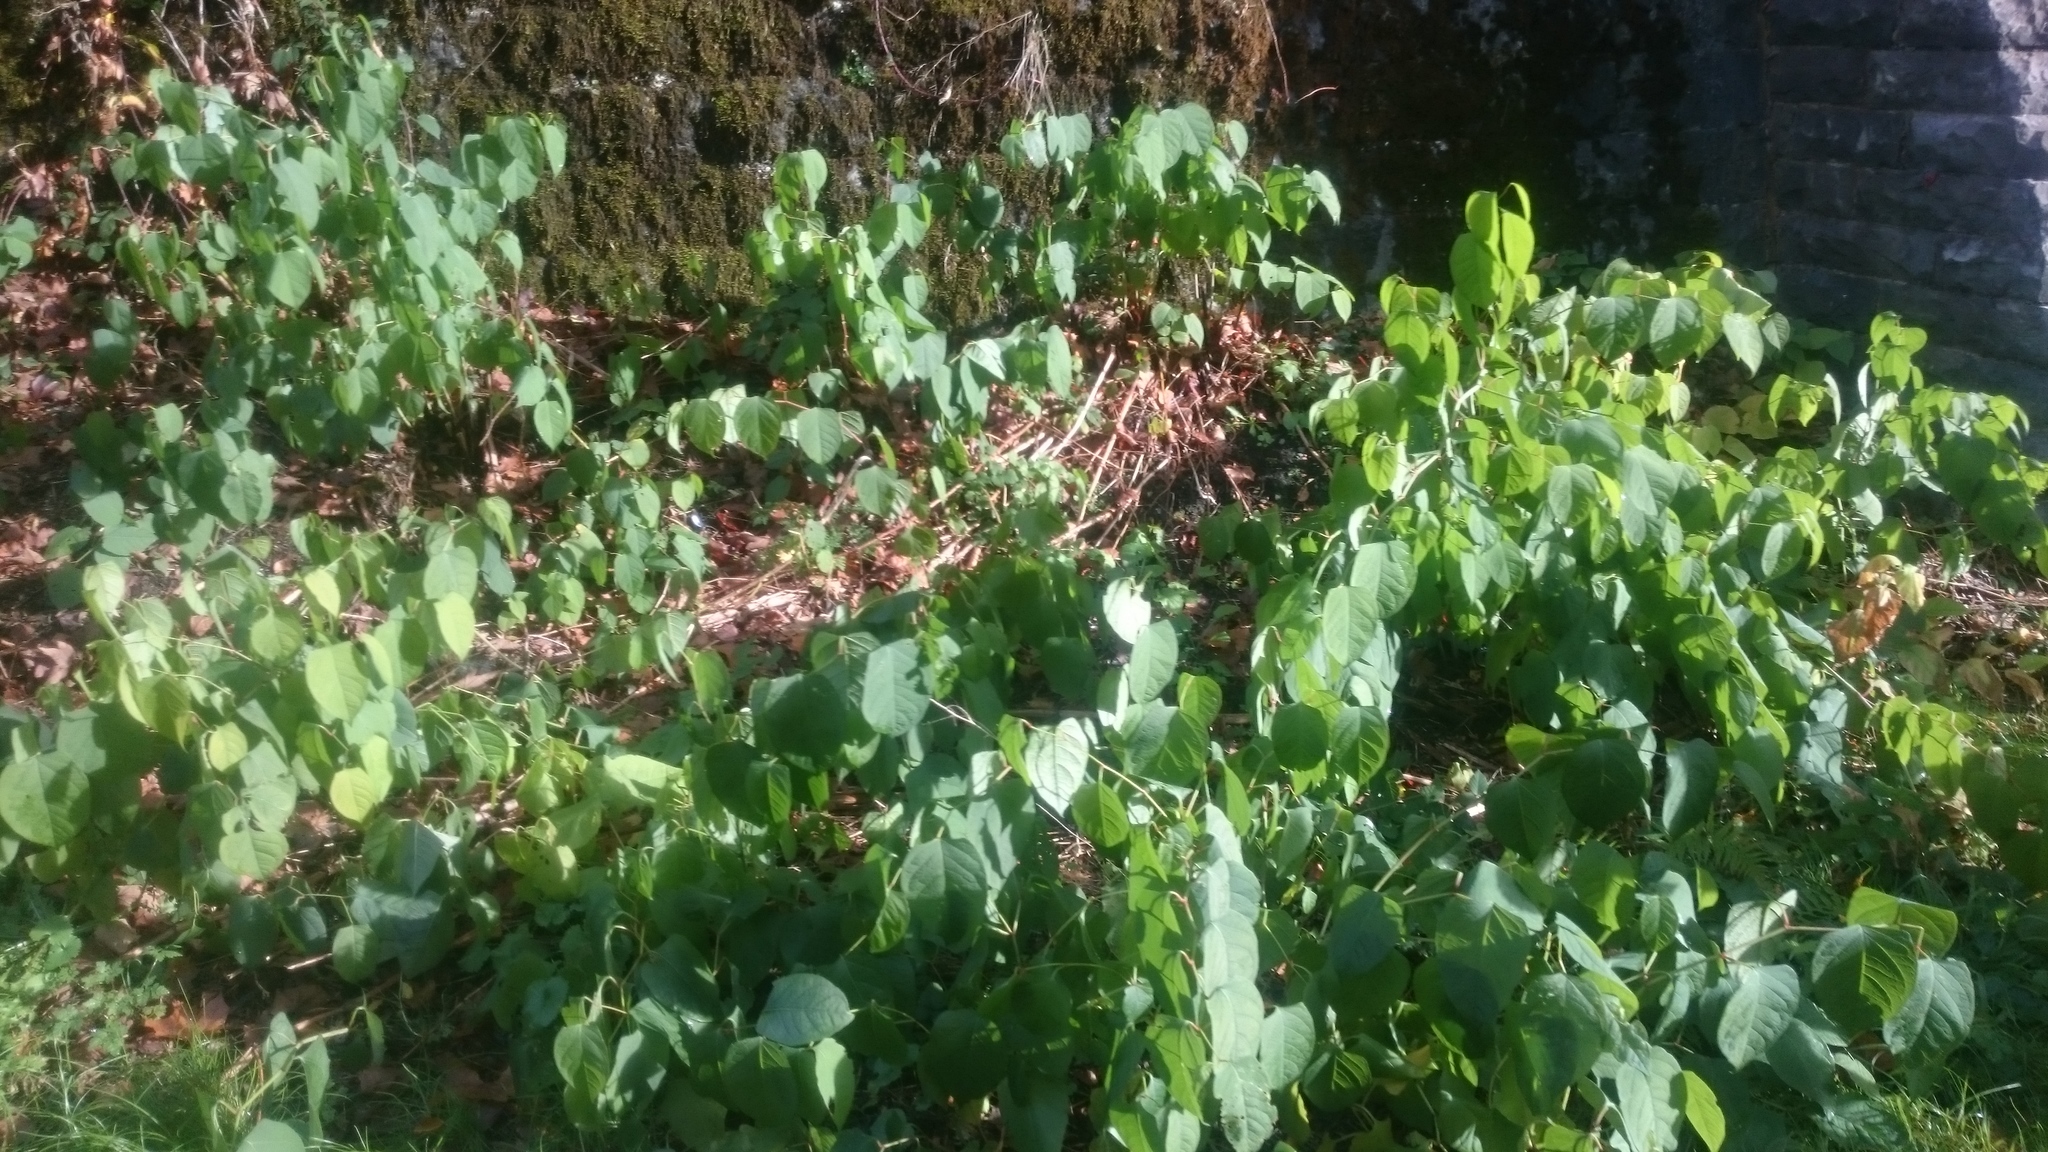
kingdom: Plantae
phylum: Tracheophyta
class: Magnoliopsida
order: Caryophyllales
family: Polygonaceae
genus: Reynoutria
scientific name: Reynoutria japonica
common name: Japanese knotweed
